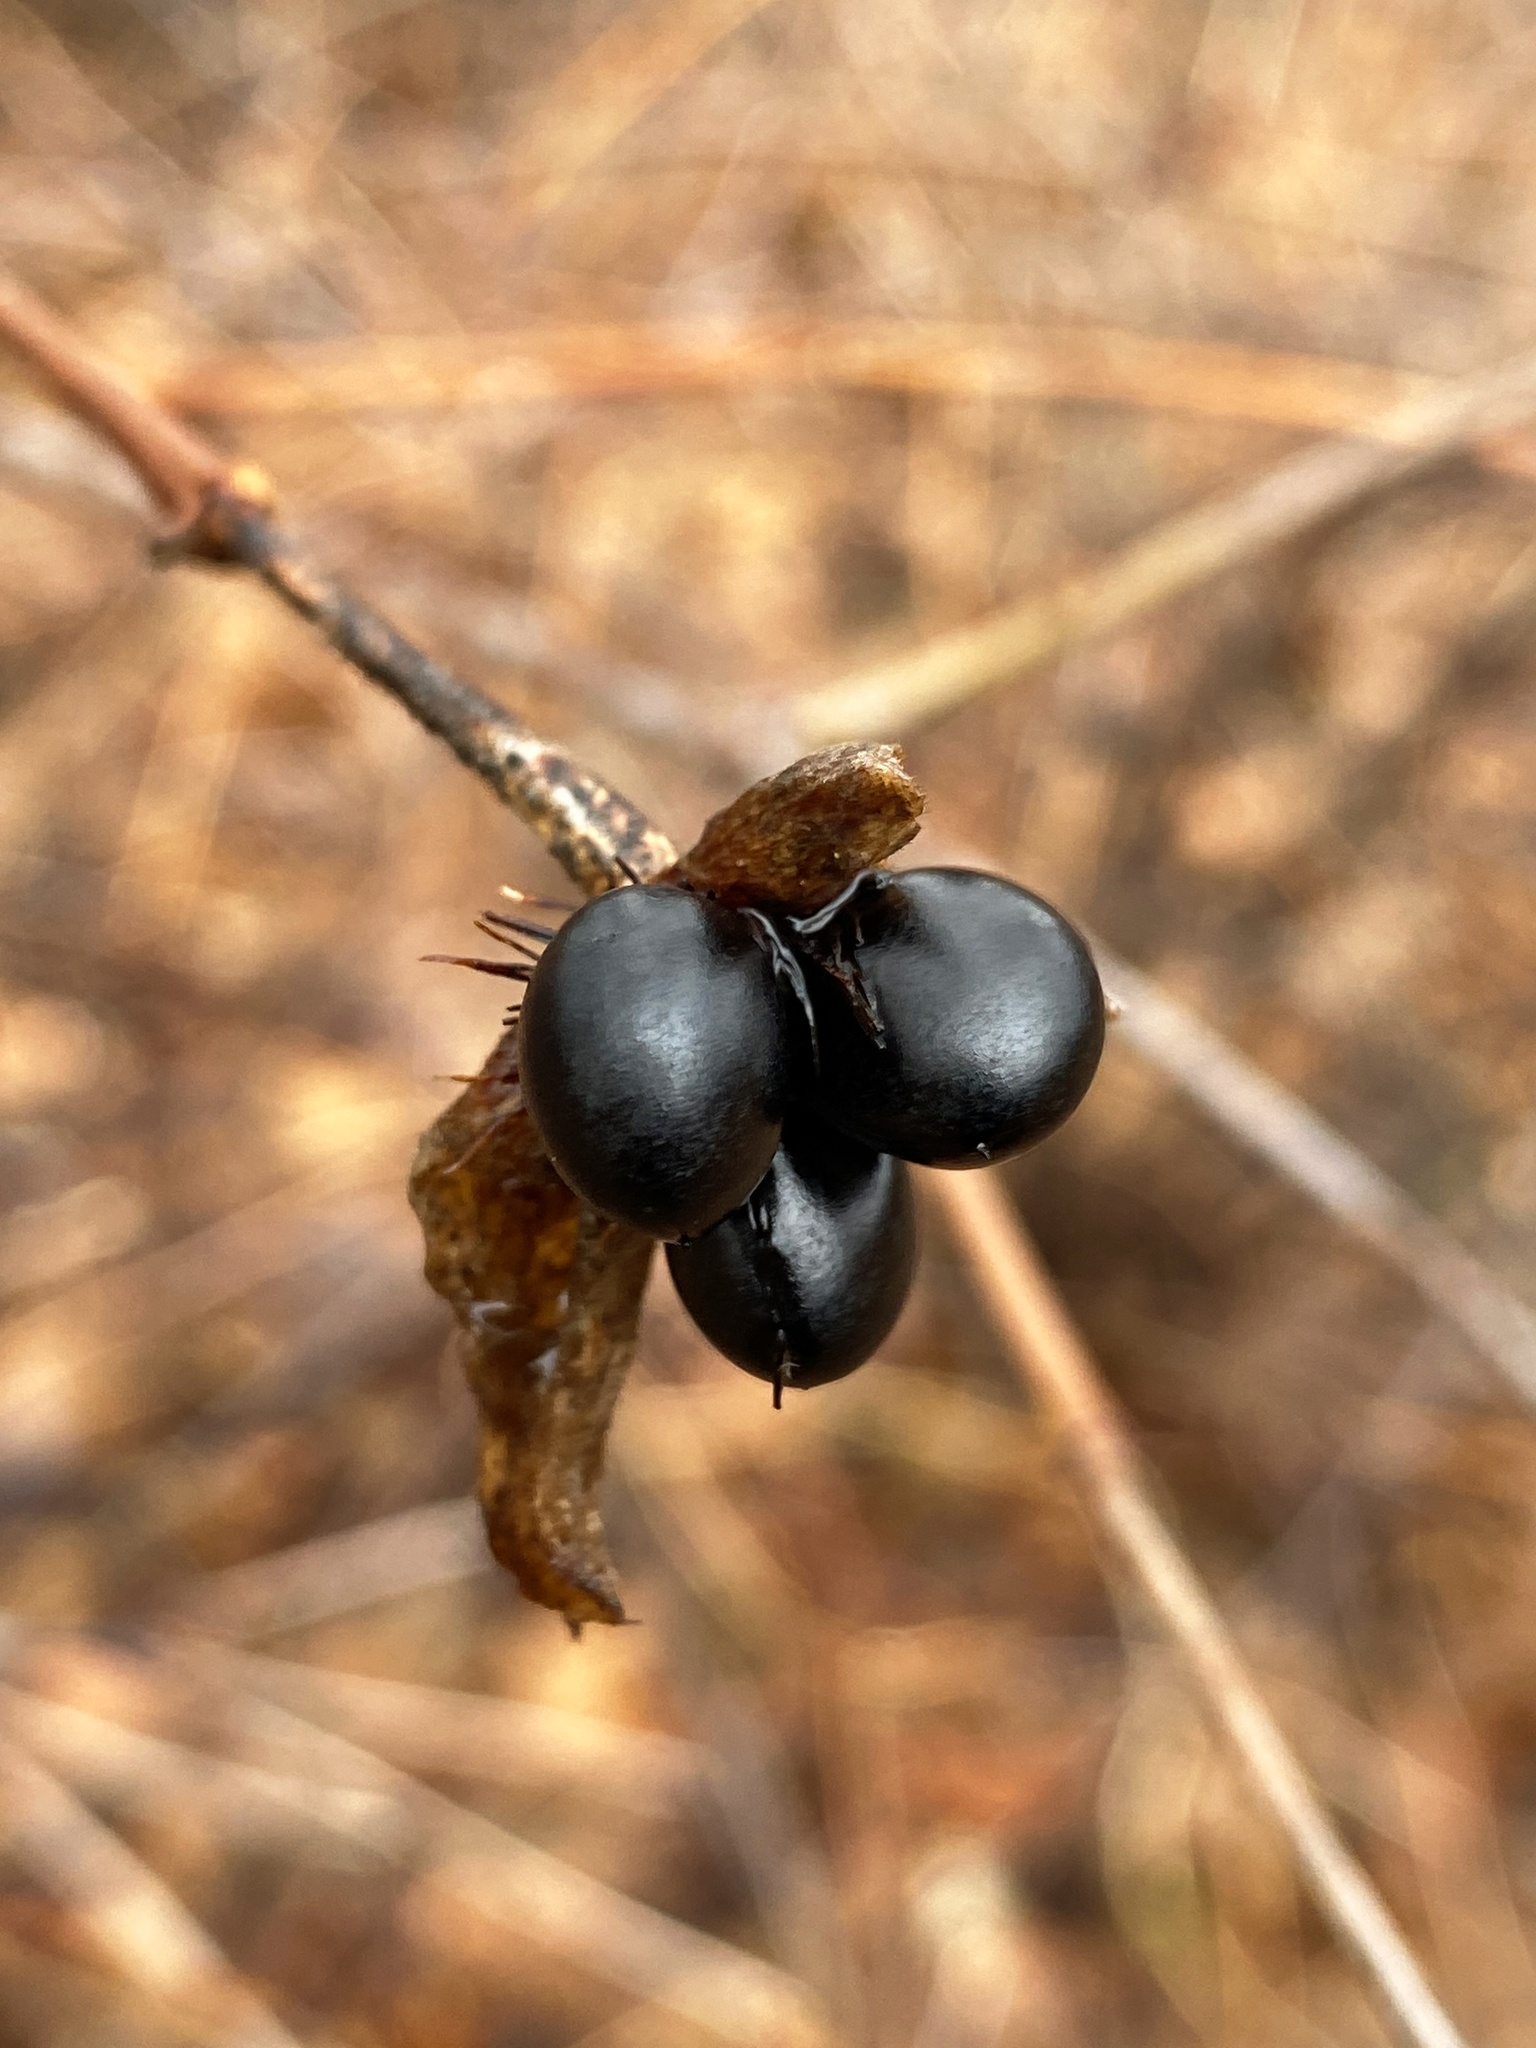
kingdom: Plantae
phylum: Tracheophyta
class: Magnoliopsida
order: Rosales
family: Rosaceae
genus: Rhodotypos
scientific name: Rhodotypos scandens
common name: Jetbead
